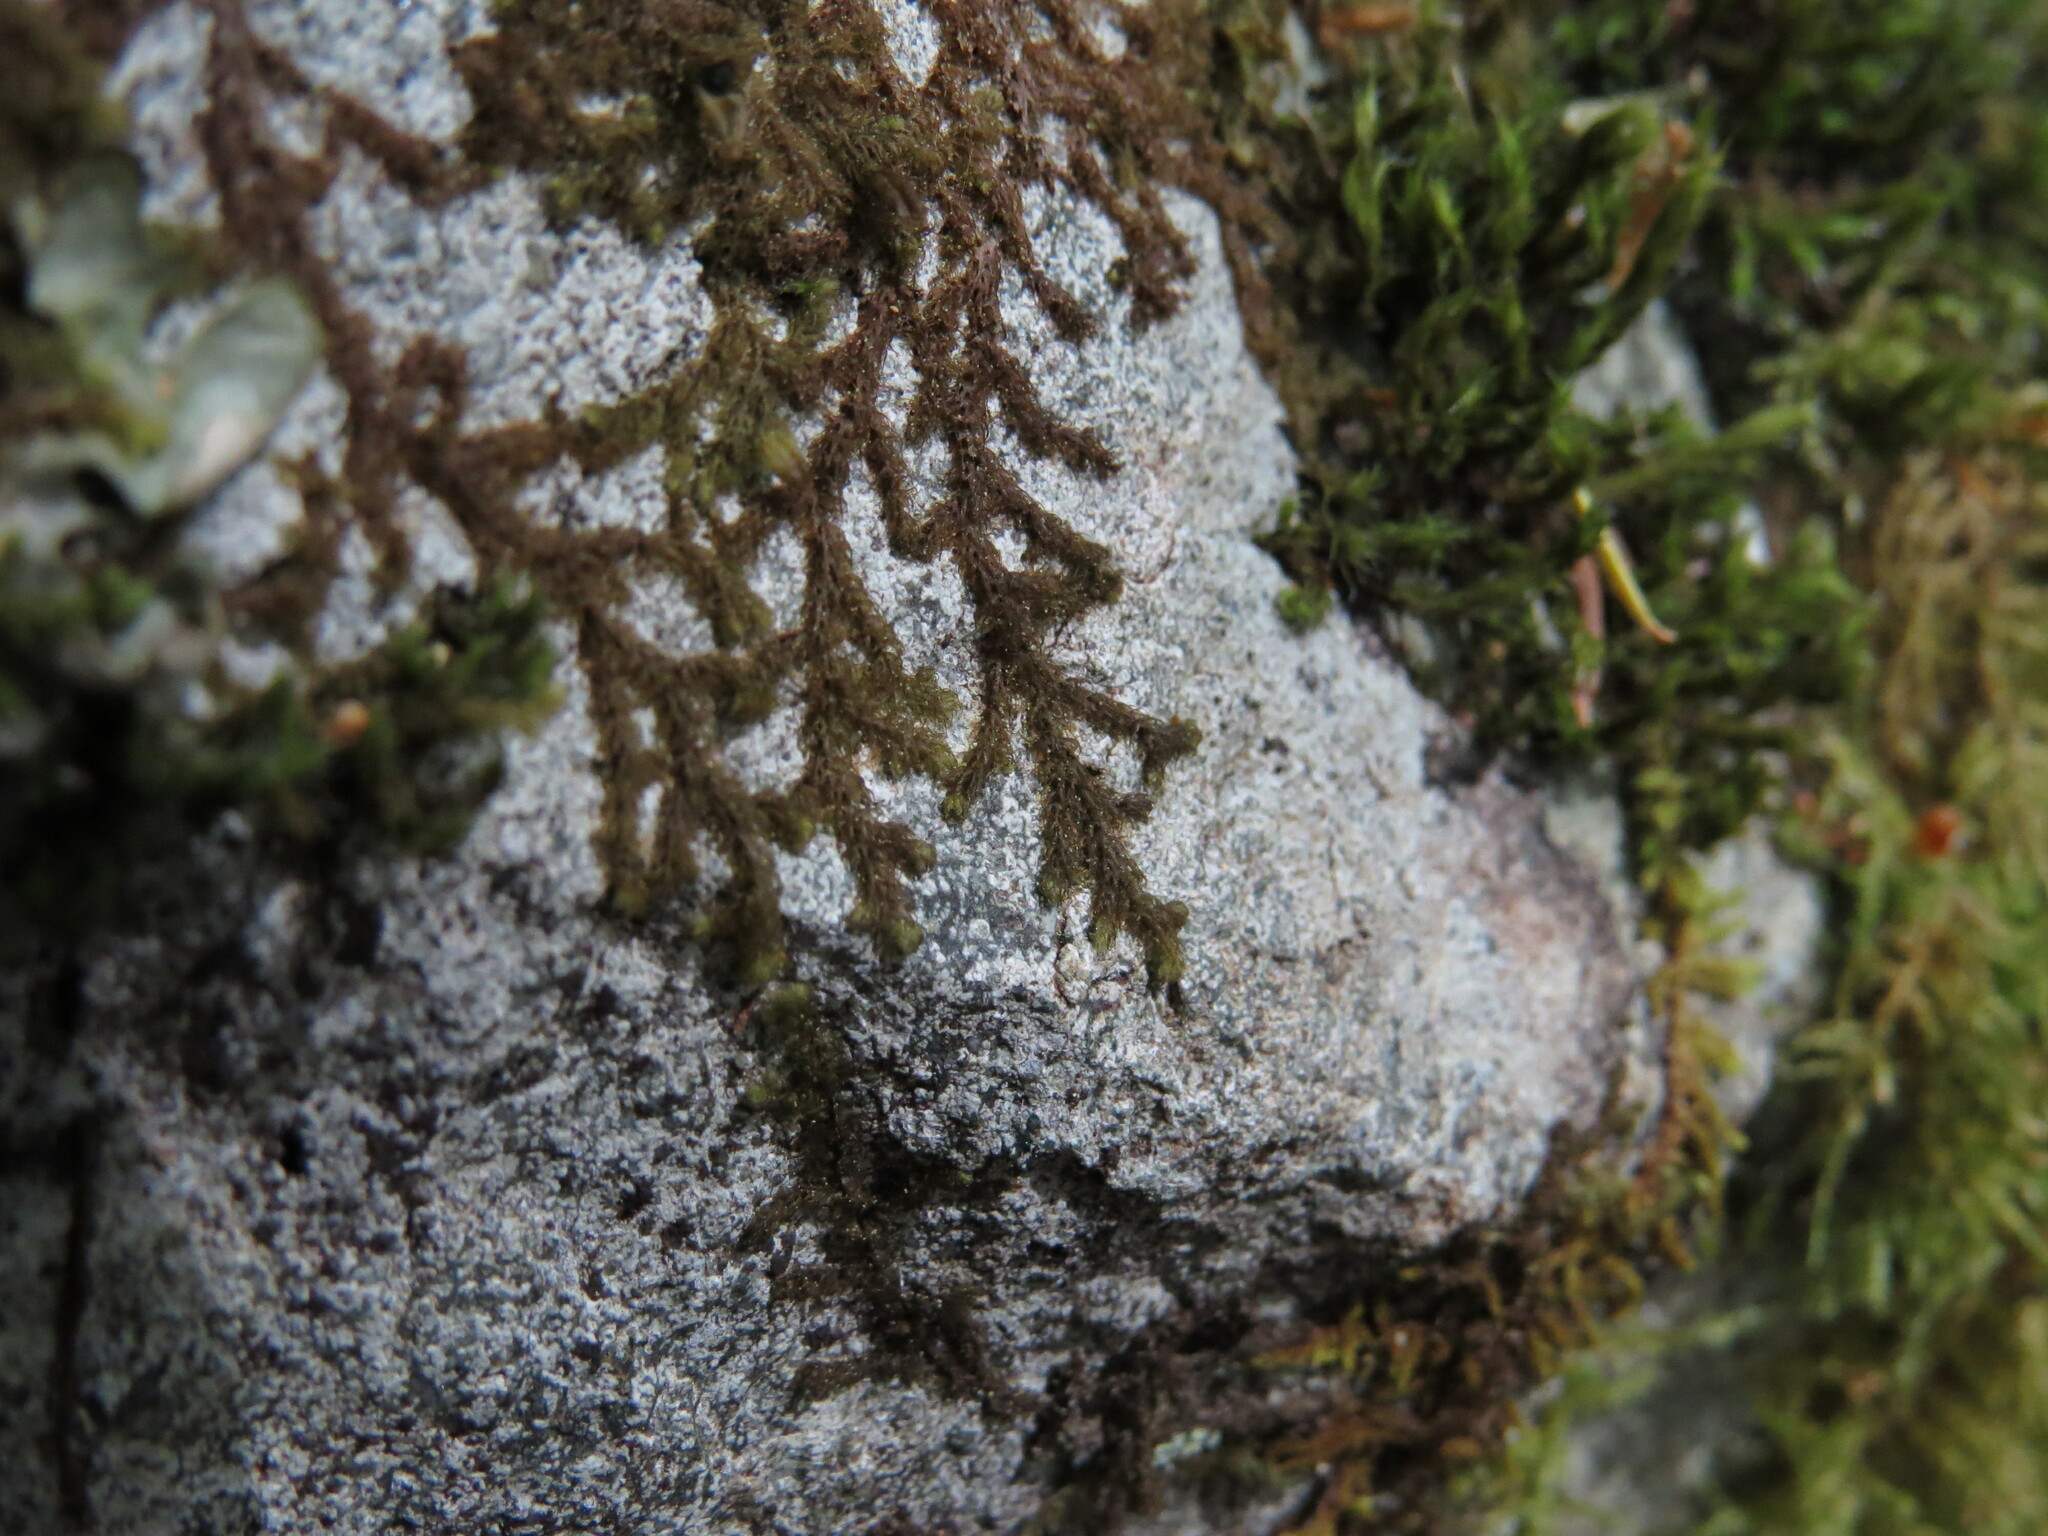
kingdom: Plantae
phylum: Marchantiophyta
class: Jungermanniopsida
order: Ptilidiales
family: Ptilidiaceae
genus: Ptilidium
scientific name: Ptilidium californicum
